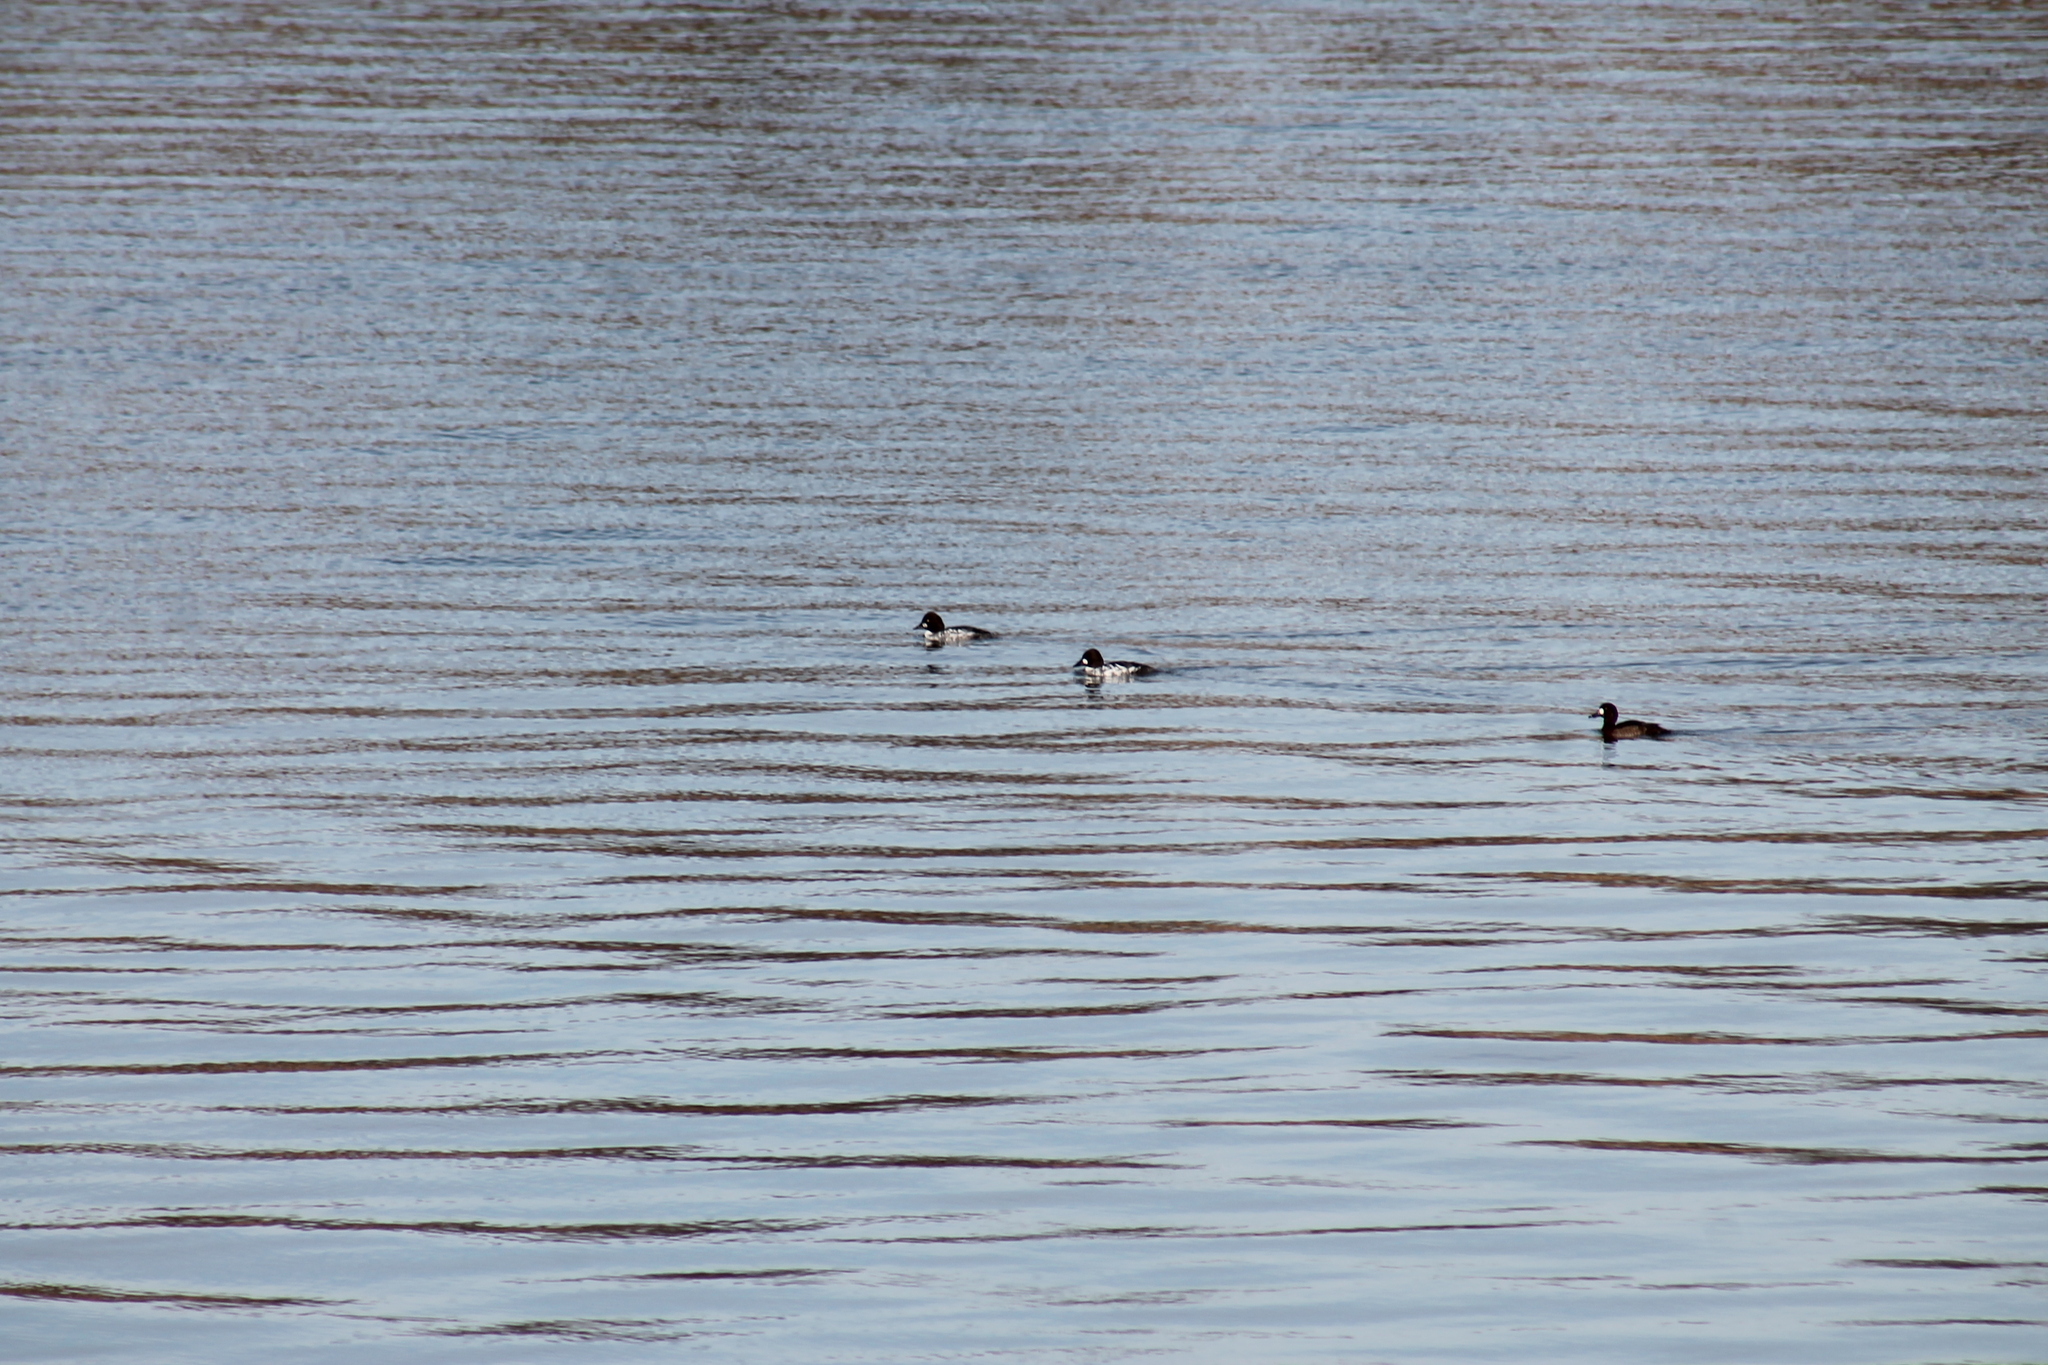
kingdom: Animalia
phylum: Chordata
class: Aves
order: Anseriformes
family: Anatidae
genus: Bucephala
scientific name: Bucephala clangula
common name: Common goldeneye
